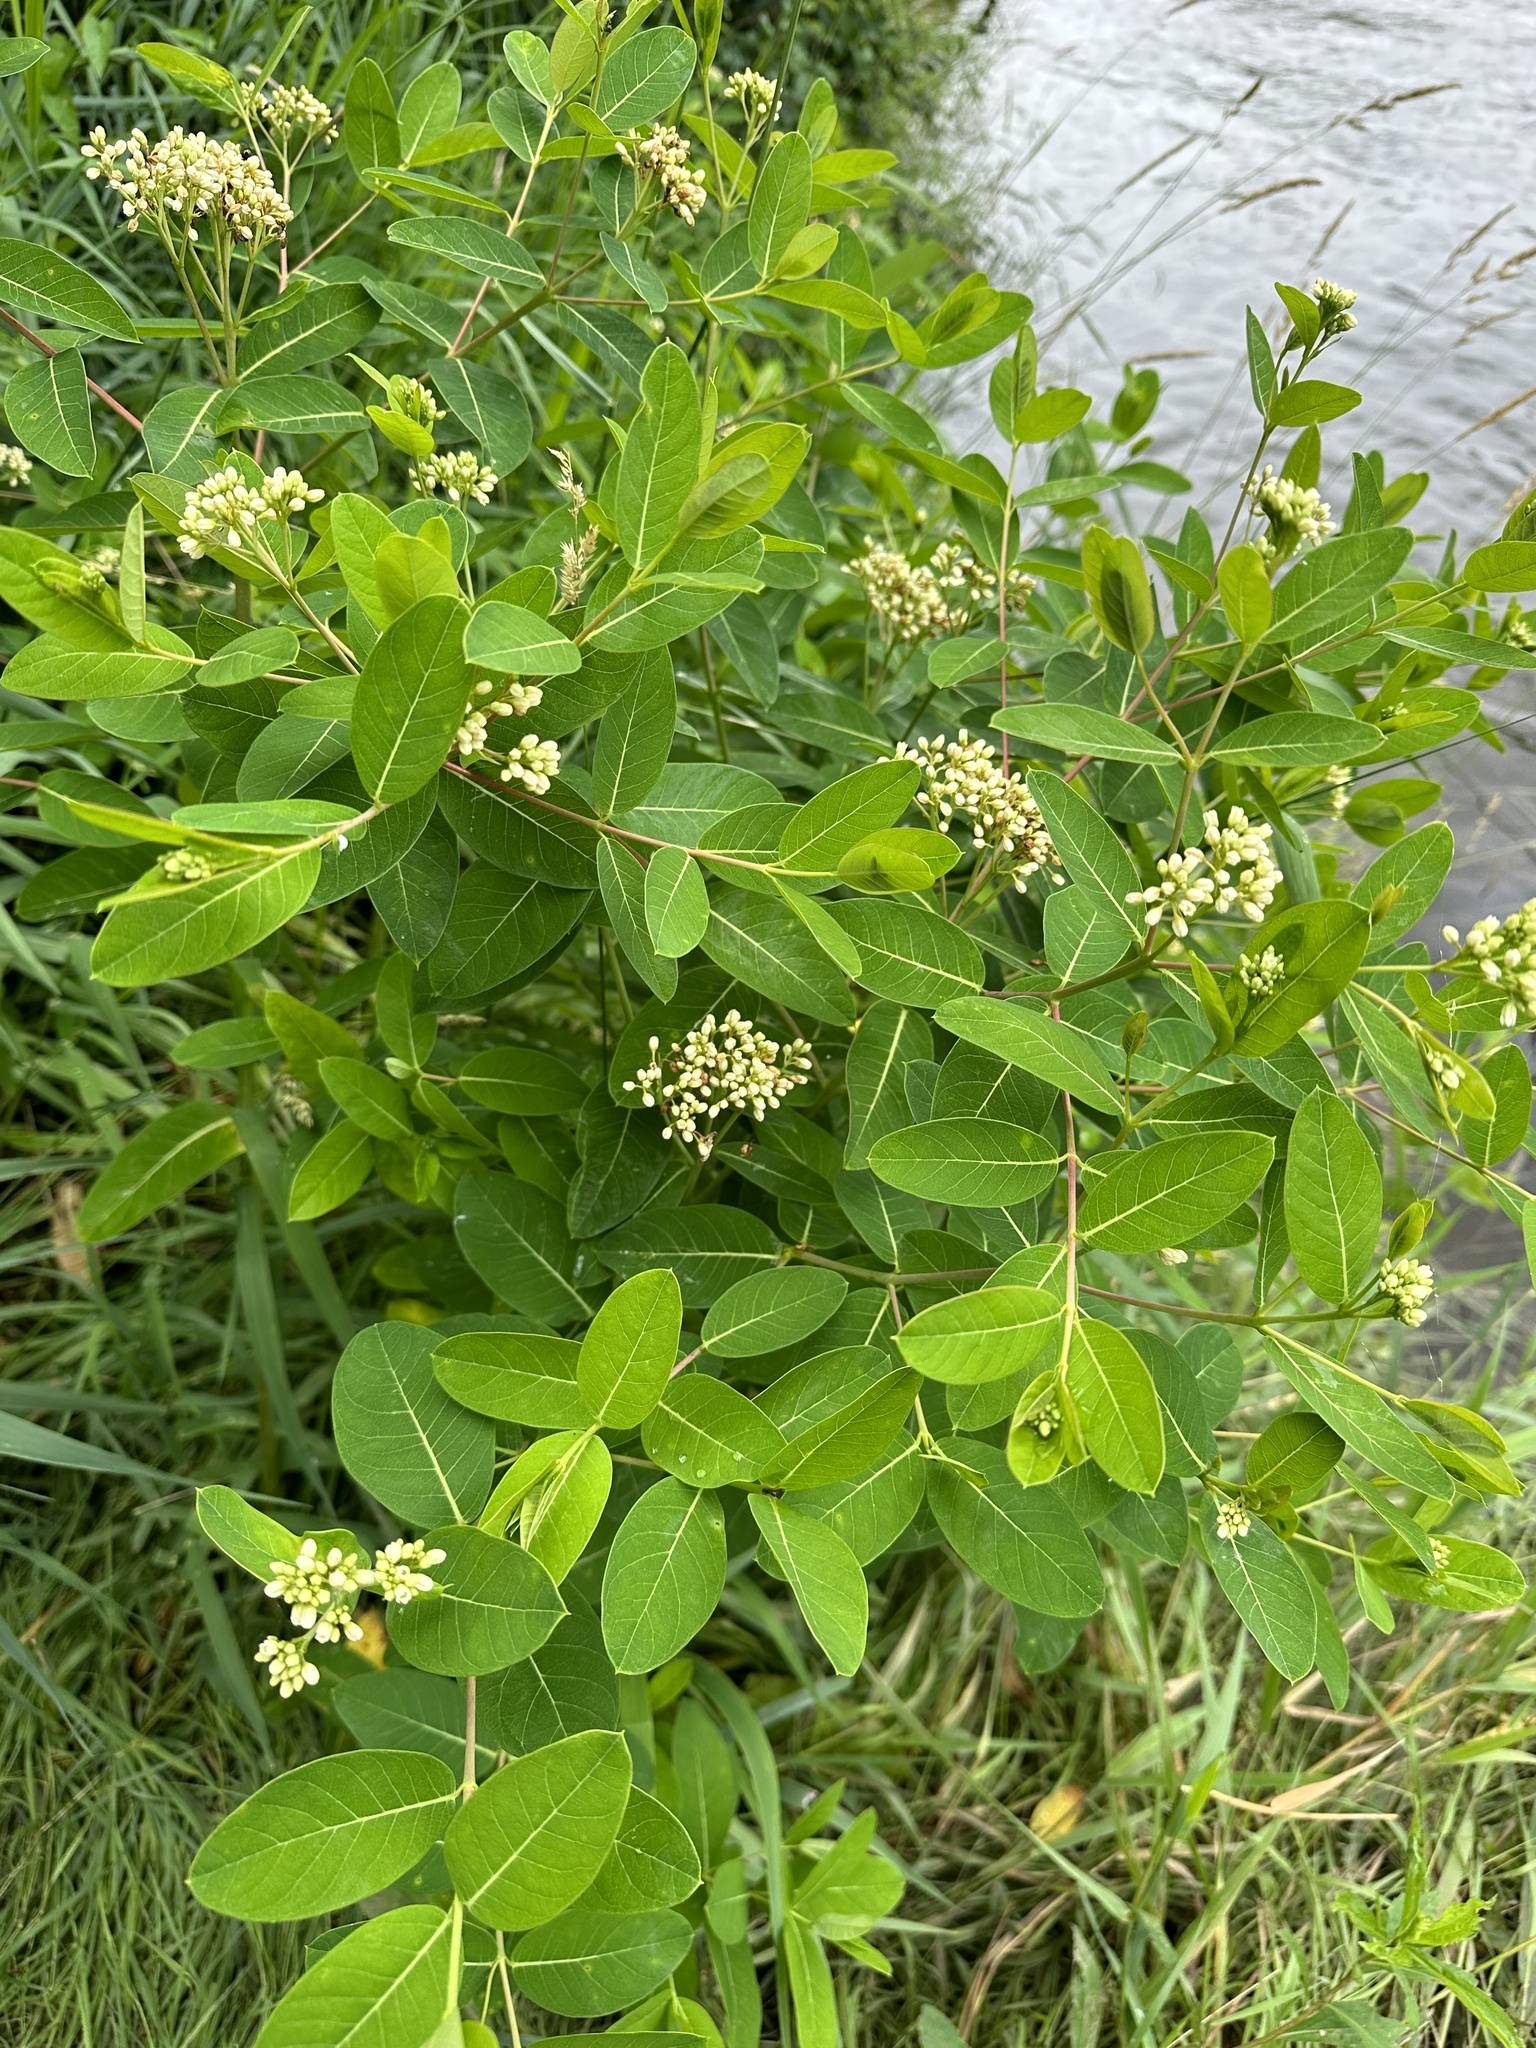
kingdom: Plantae
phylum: Tracheophyta
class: Magnoliopsida
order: Gentianales
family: Apocynaceae
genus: Apocynum
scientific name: Apocynum cannabinum
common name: Hemp dogbane
